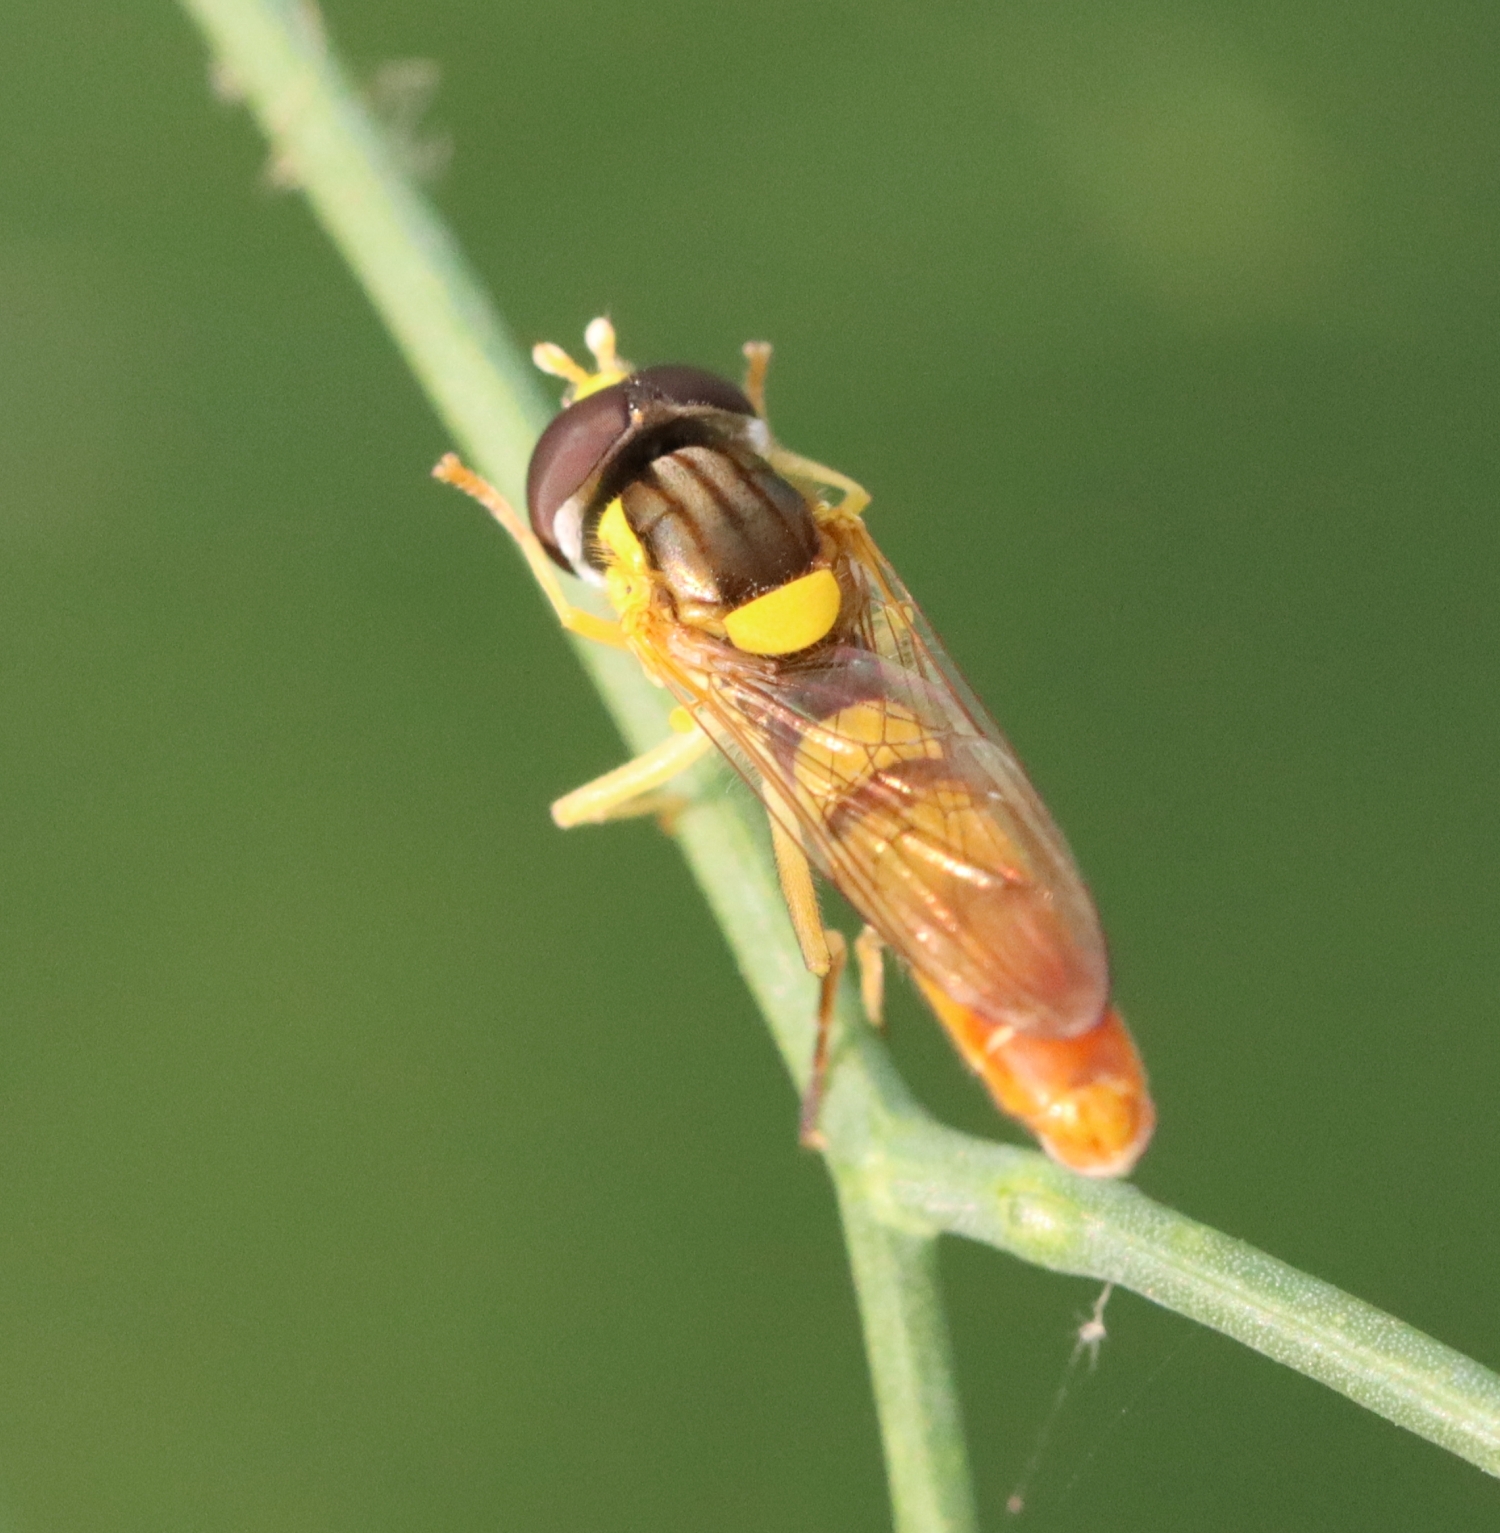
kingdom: Animalia
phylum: Arthropoda
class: Insecta
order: Diptera
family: Syrphidae
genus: Sphaerophoria
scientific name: Sphaerophoria contigua
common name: Tufted globetail
